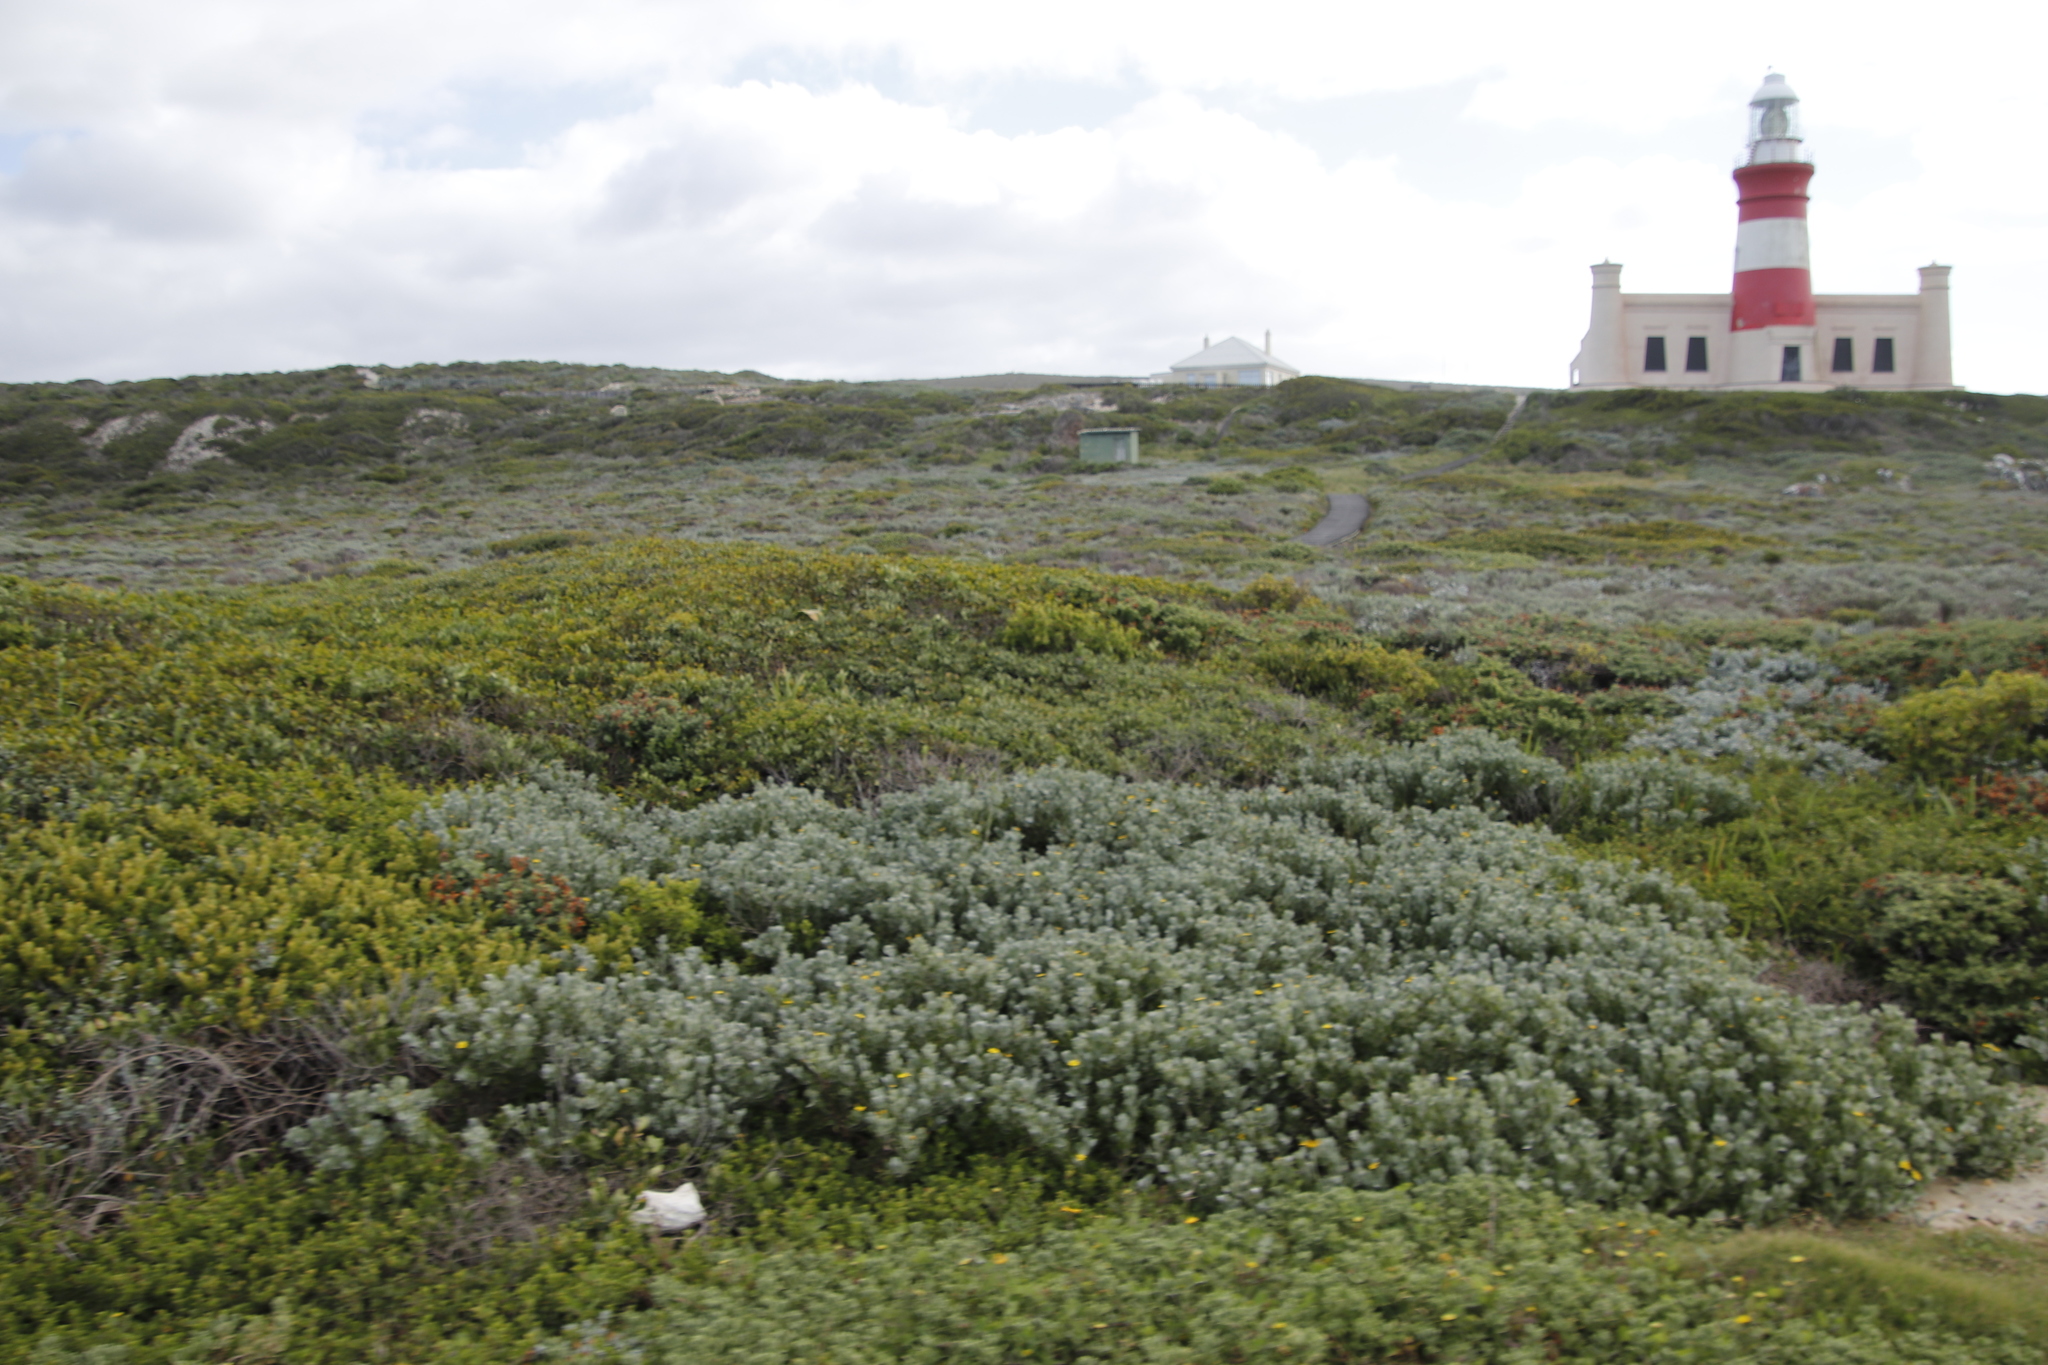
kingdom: Plantae
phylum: Tracheophyta
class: Magnoliopsida
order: Asterales
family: Asteraceae
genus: Osteospermum
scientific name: Osteospermum incanum
